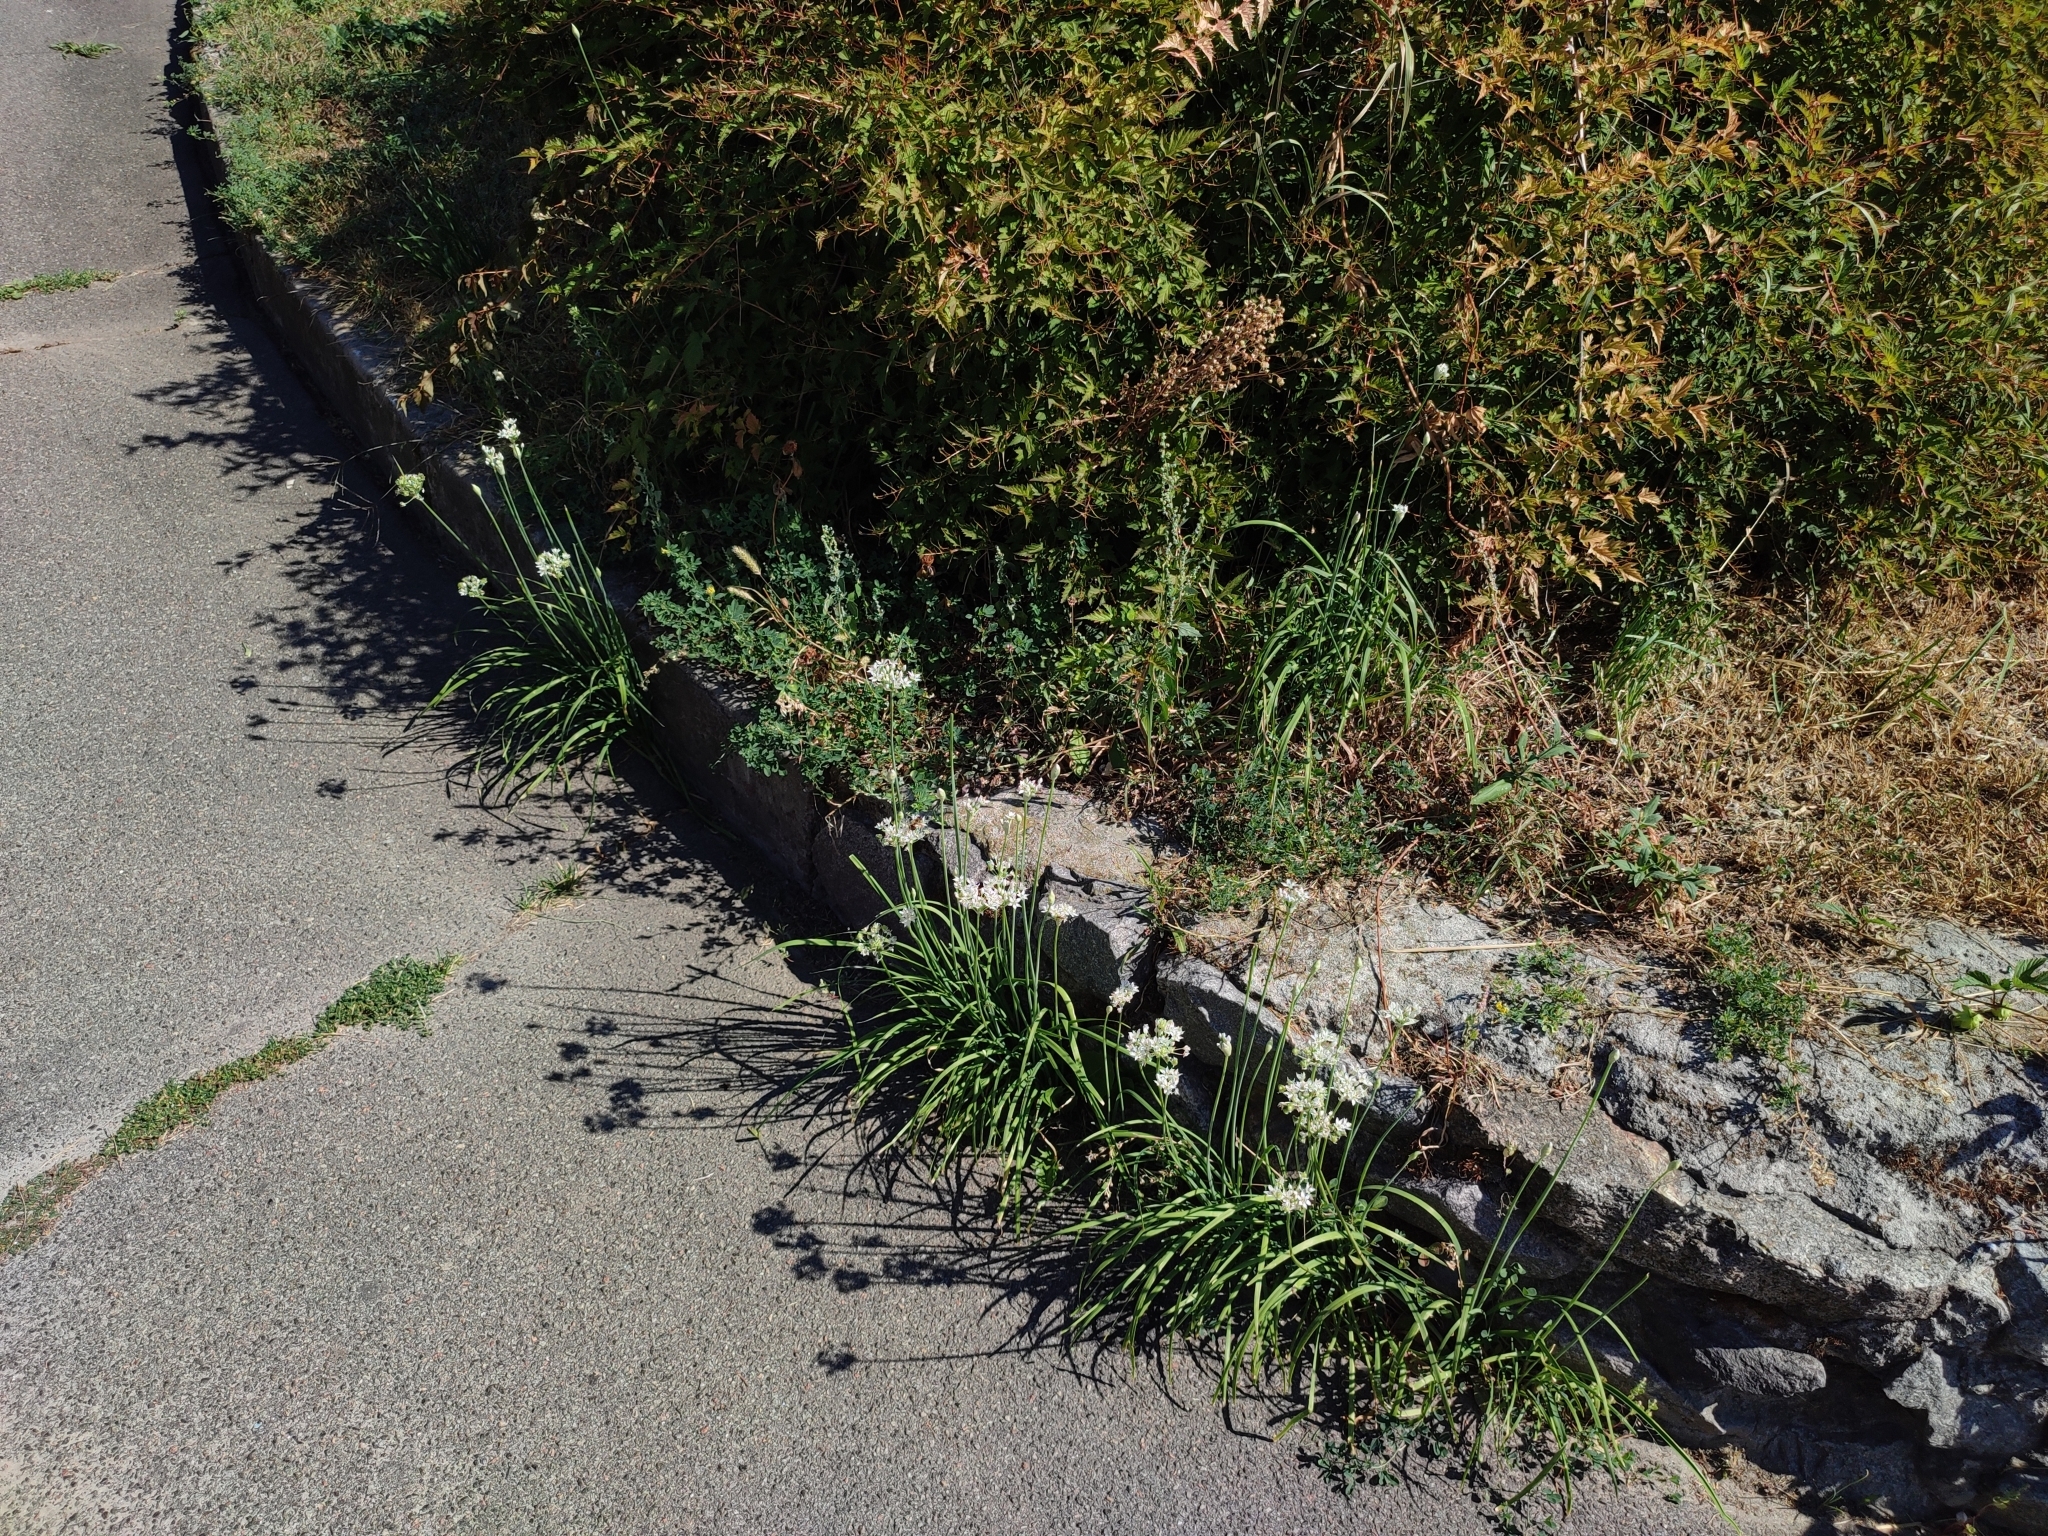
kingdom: Plantae
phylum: Tracheophyta
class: Liliopsida
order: Asparagales
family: Amaryllidaceae
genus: Allium
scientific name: Allium tuberosum
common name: Chinese chives
